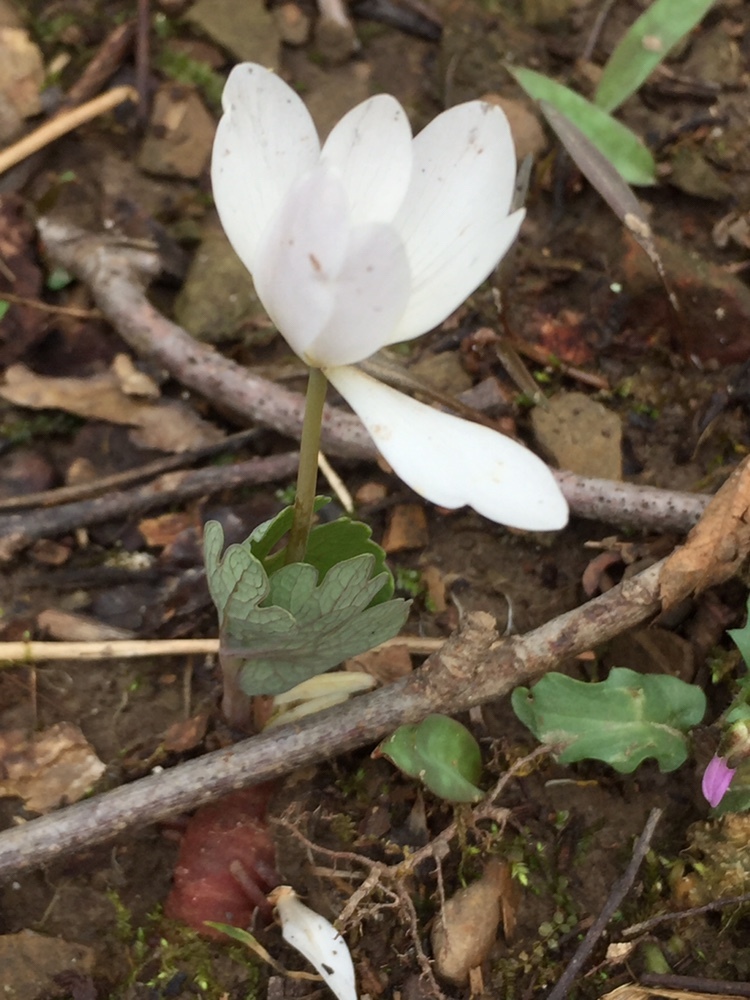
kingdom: Plantae
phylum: Tracheophyta
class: Magnoliopsida
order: Ranunculales
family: Papaveraceae
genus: Sanguinaria
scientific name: Sanguinaria canadensis
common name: Bloodroot
